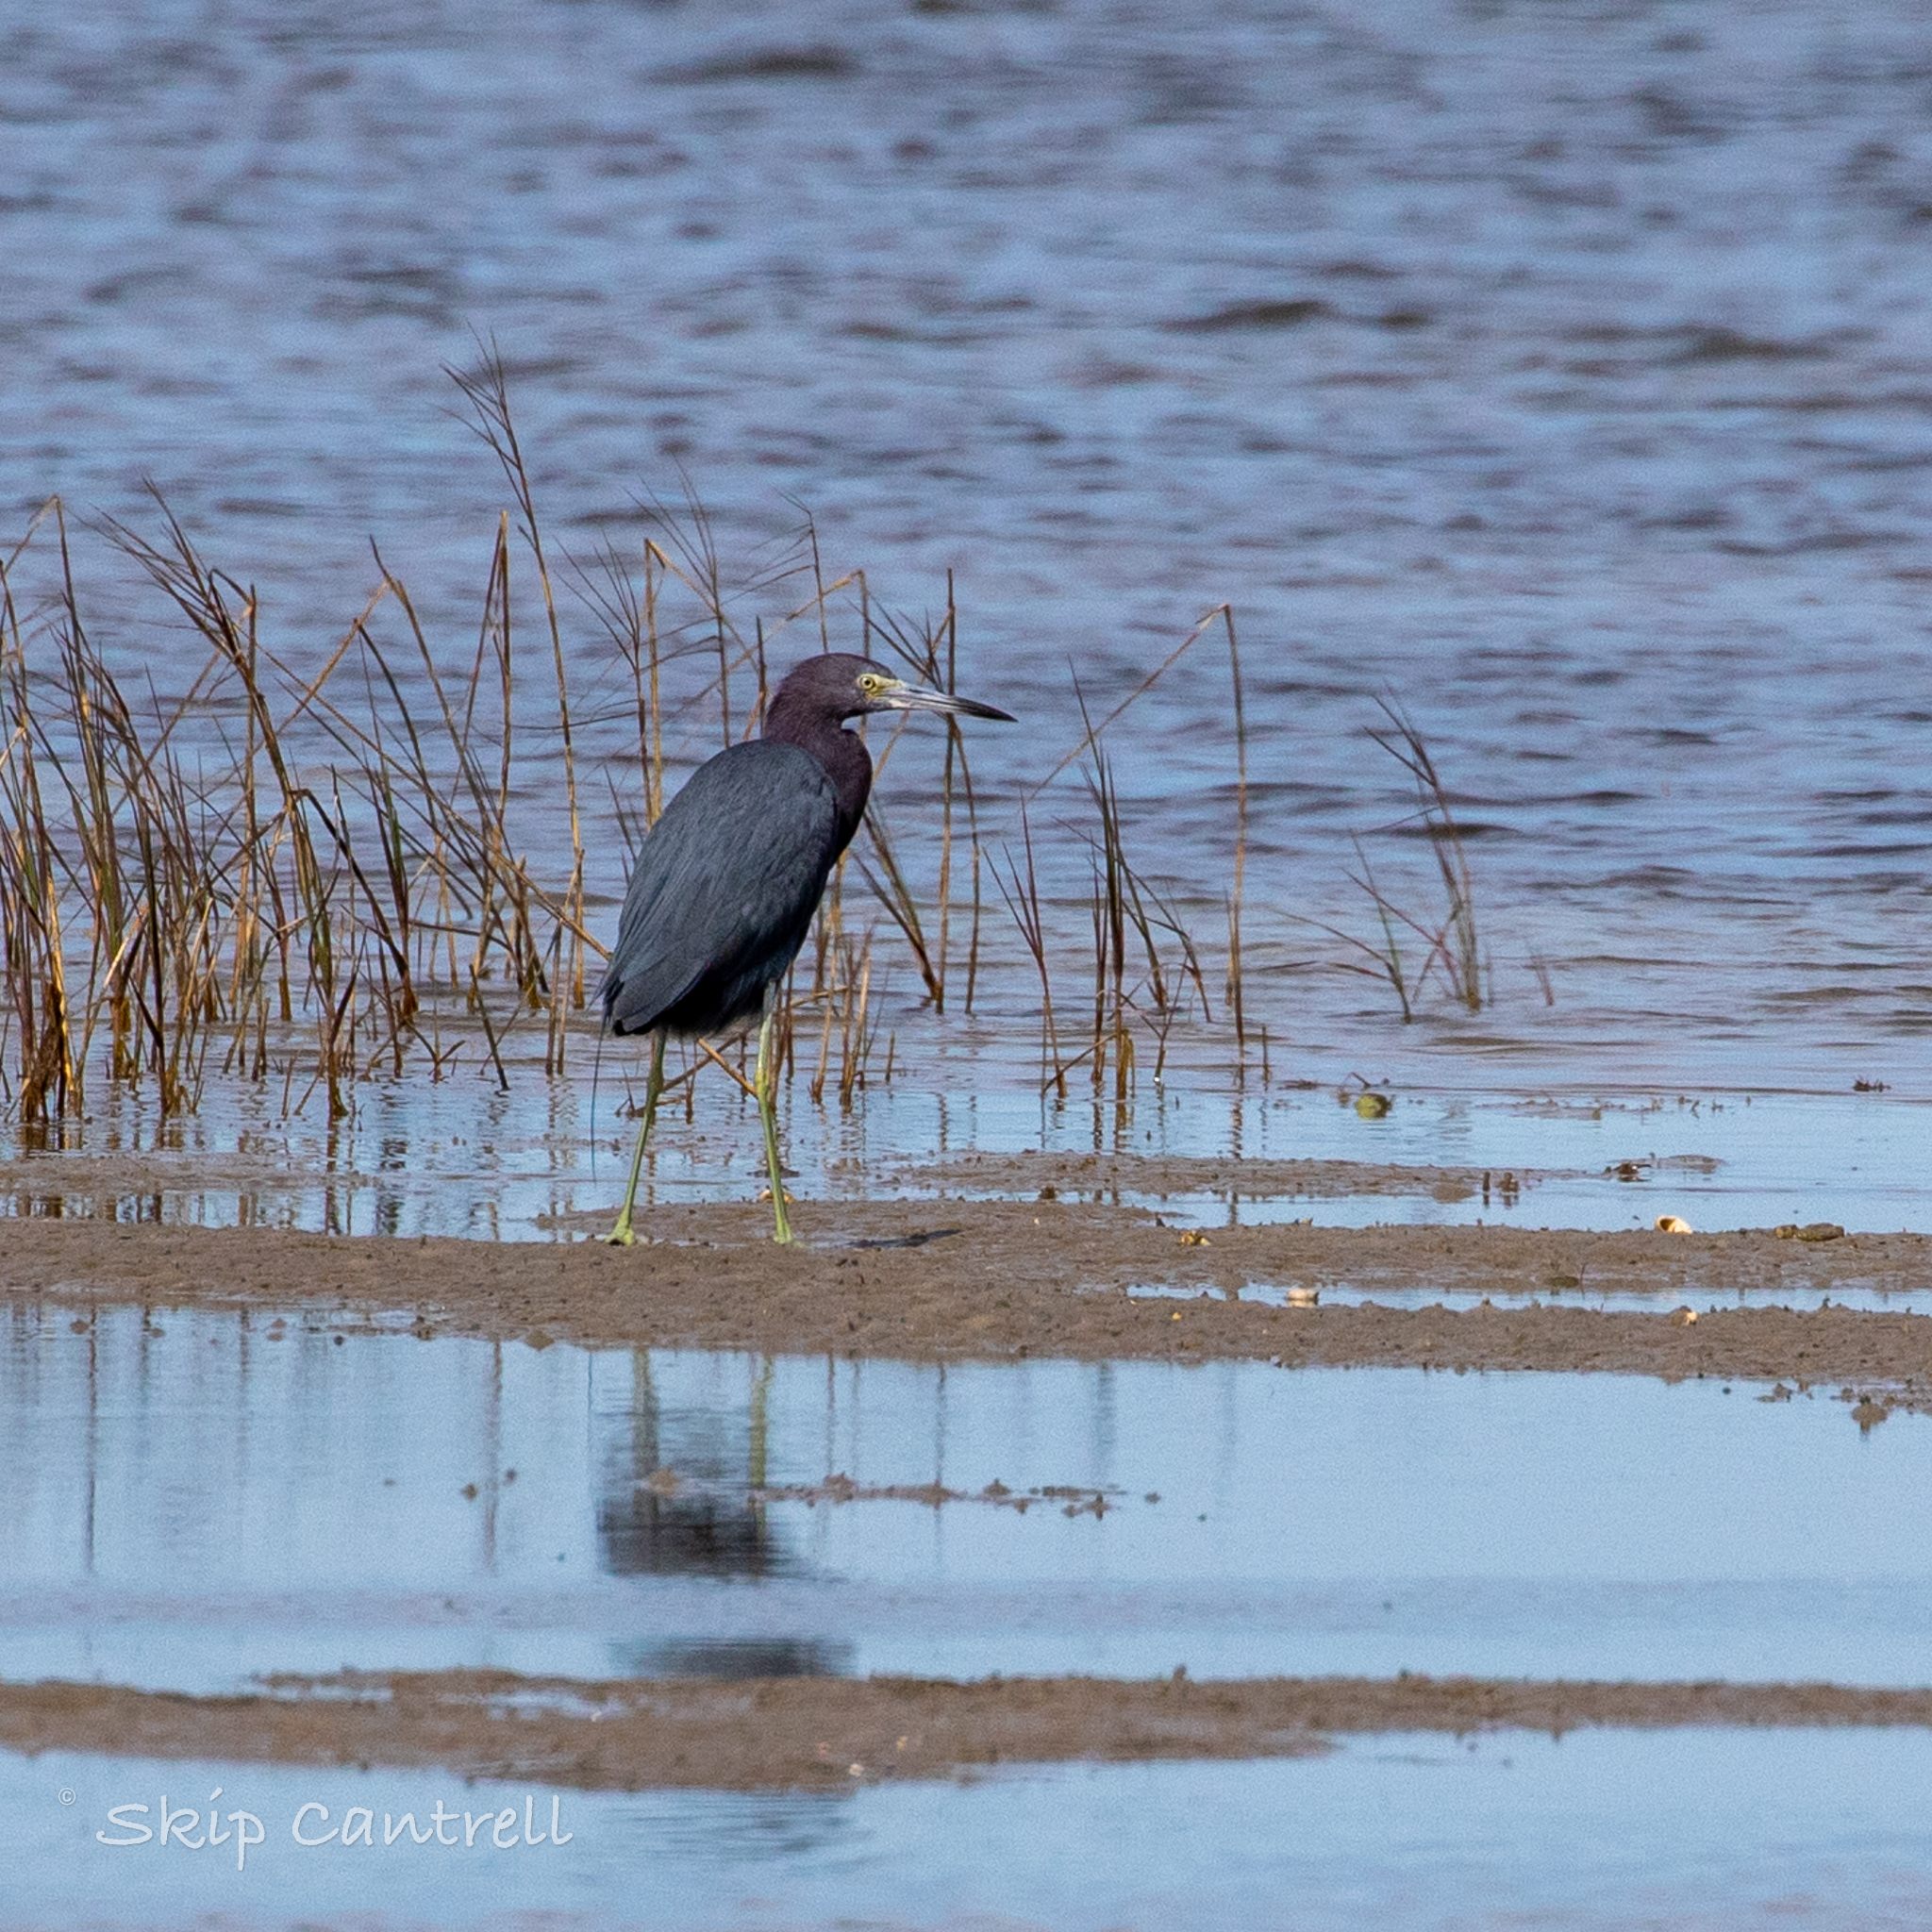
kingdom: Animalia
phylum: Chordata
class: Aves
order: Pelecaniformes
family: Ardeidae
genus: Egretta
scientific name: Egretta caerulea
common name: Little blue heron
